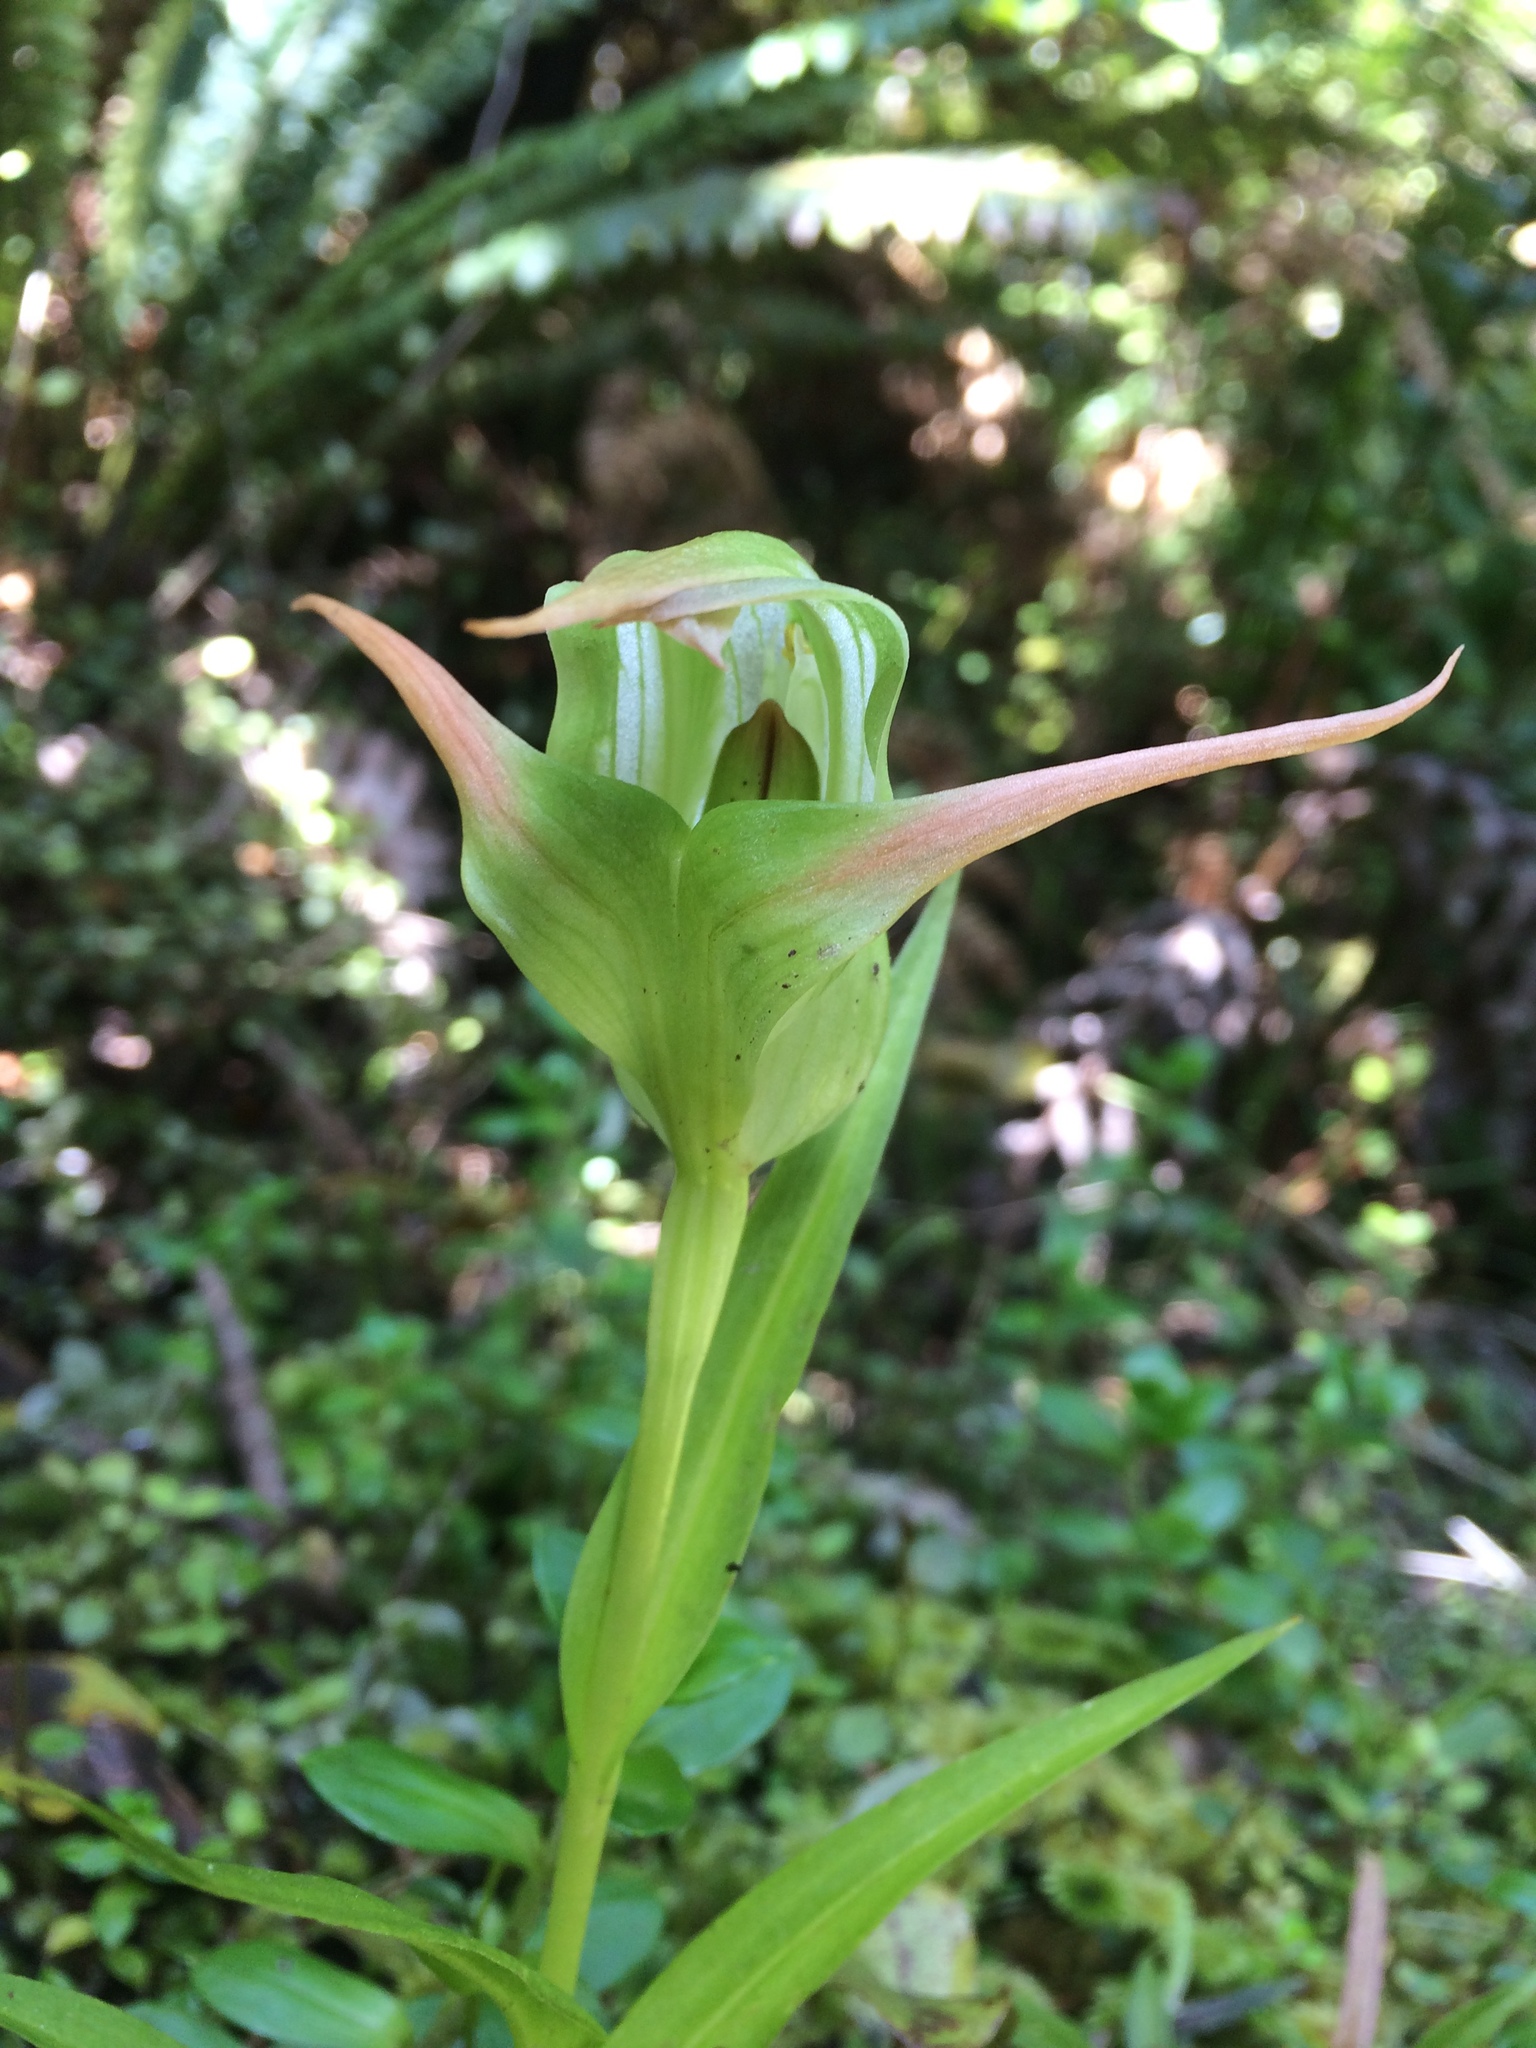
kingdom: Plantae
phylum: Tracheophyta
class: Liliopsida
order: Asparagales
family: Orchidaceae
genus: Pterostylis
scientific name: Pterostylis banksii
